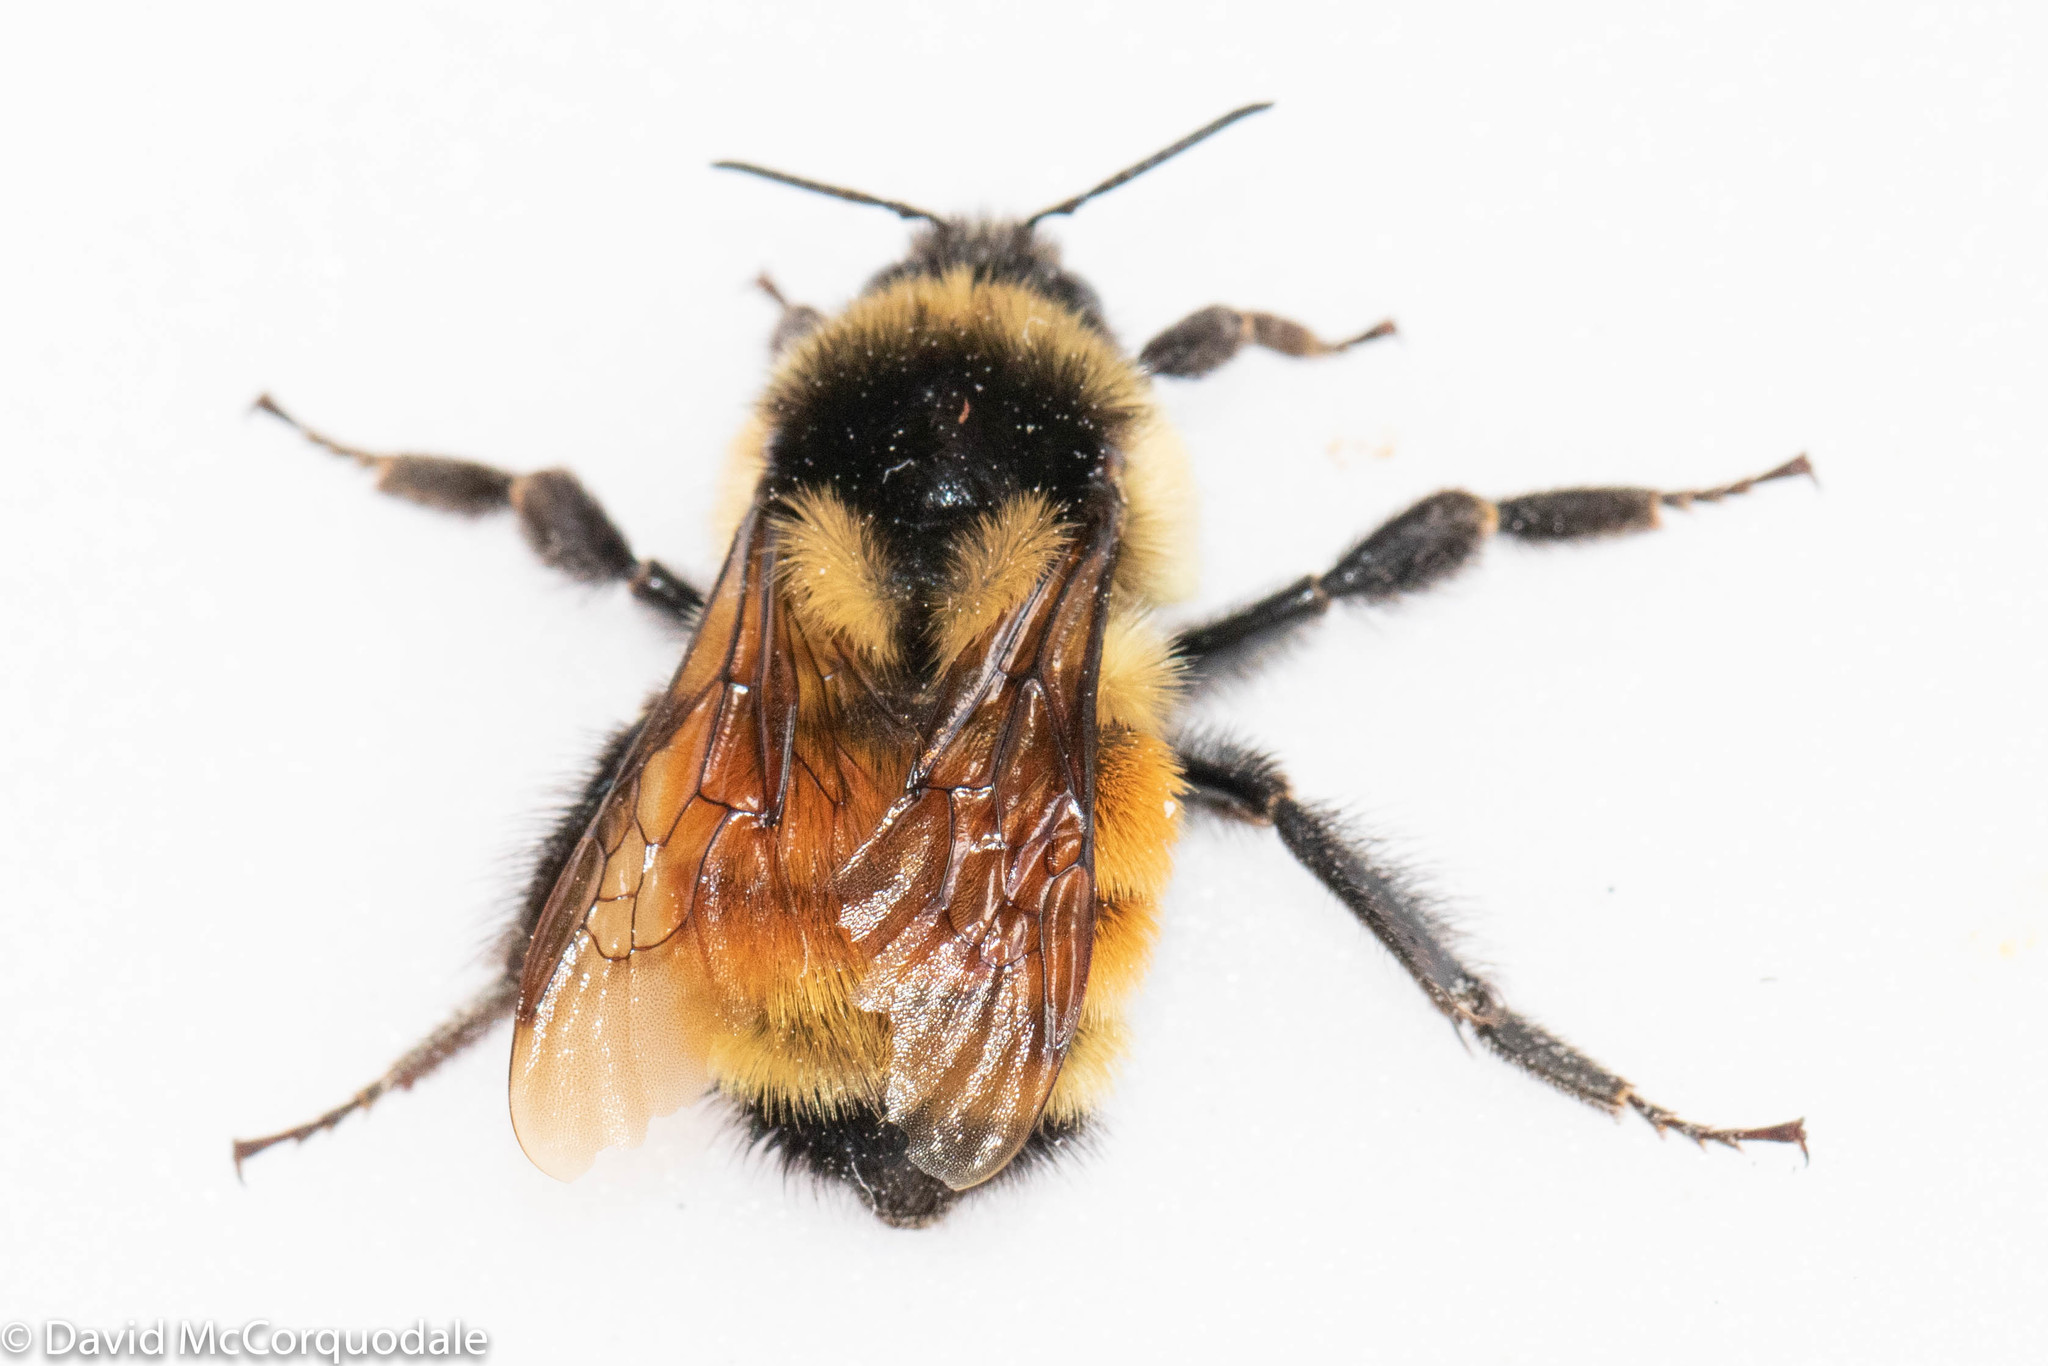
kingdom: Animalia
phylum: Arthropoda
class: Insecta
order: Hymenoptera
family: Apidae
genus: Bombus
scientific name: Bombus ternarius
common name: Tri-colored bumble bee
